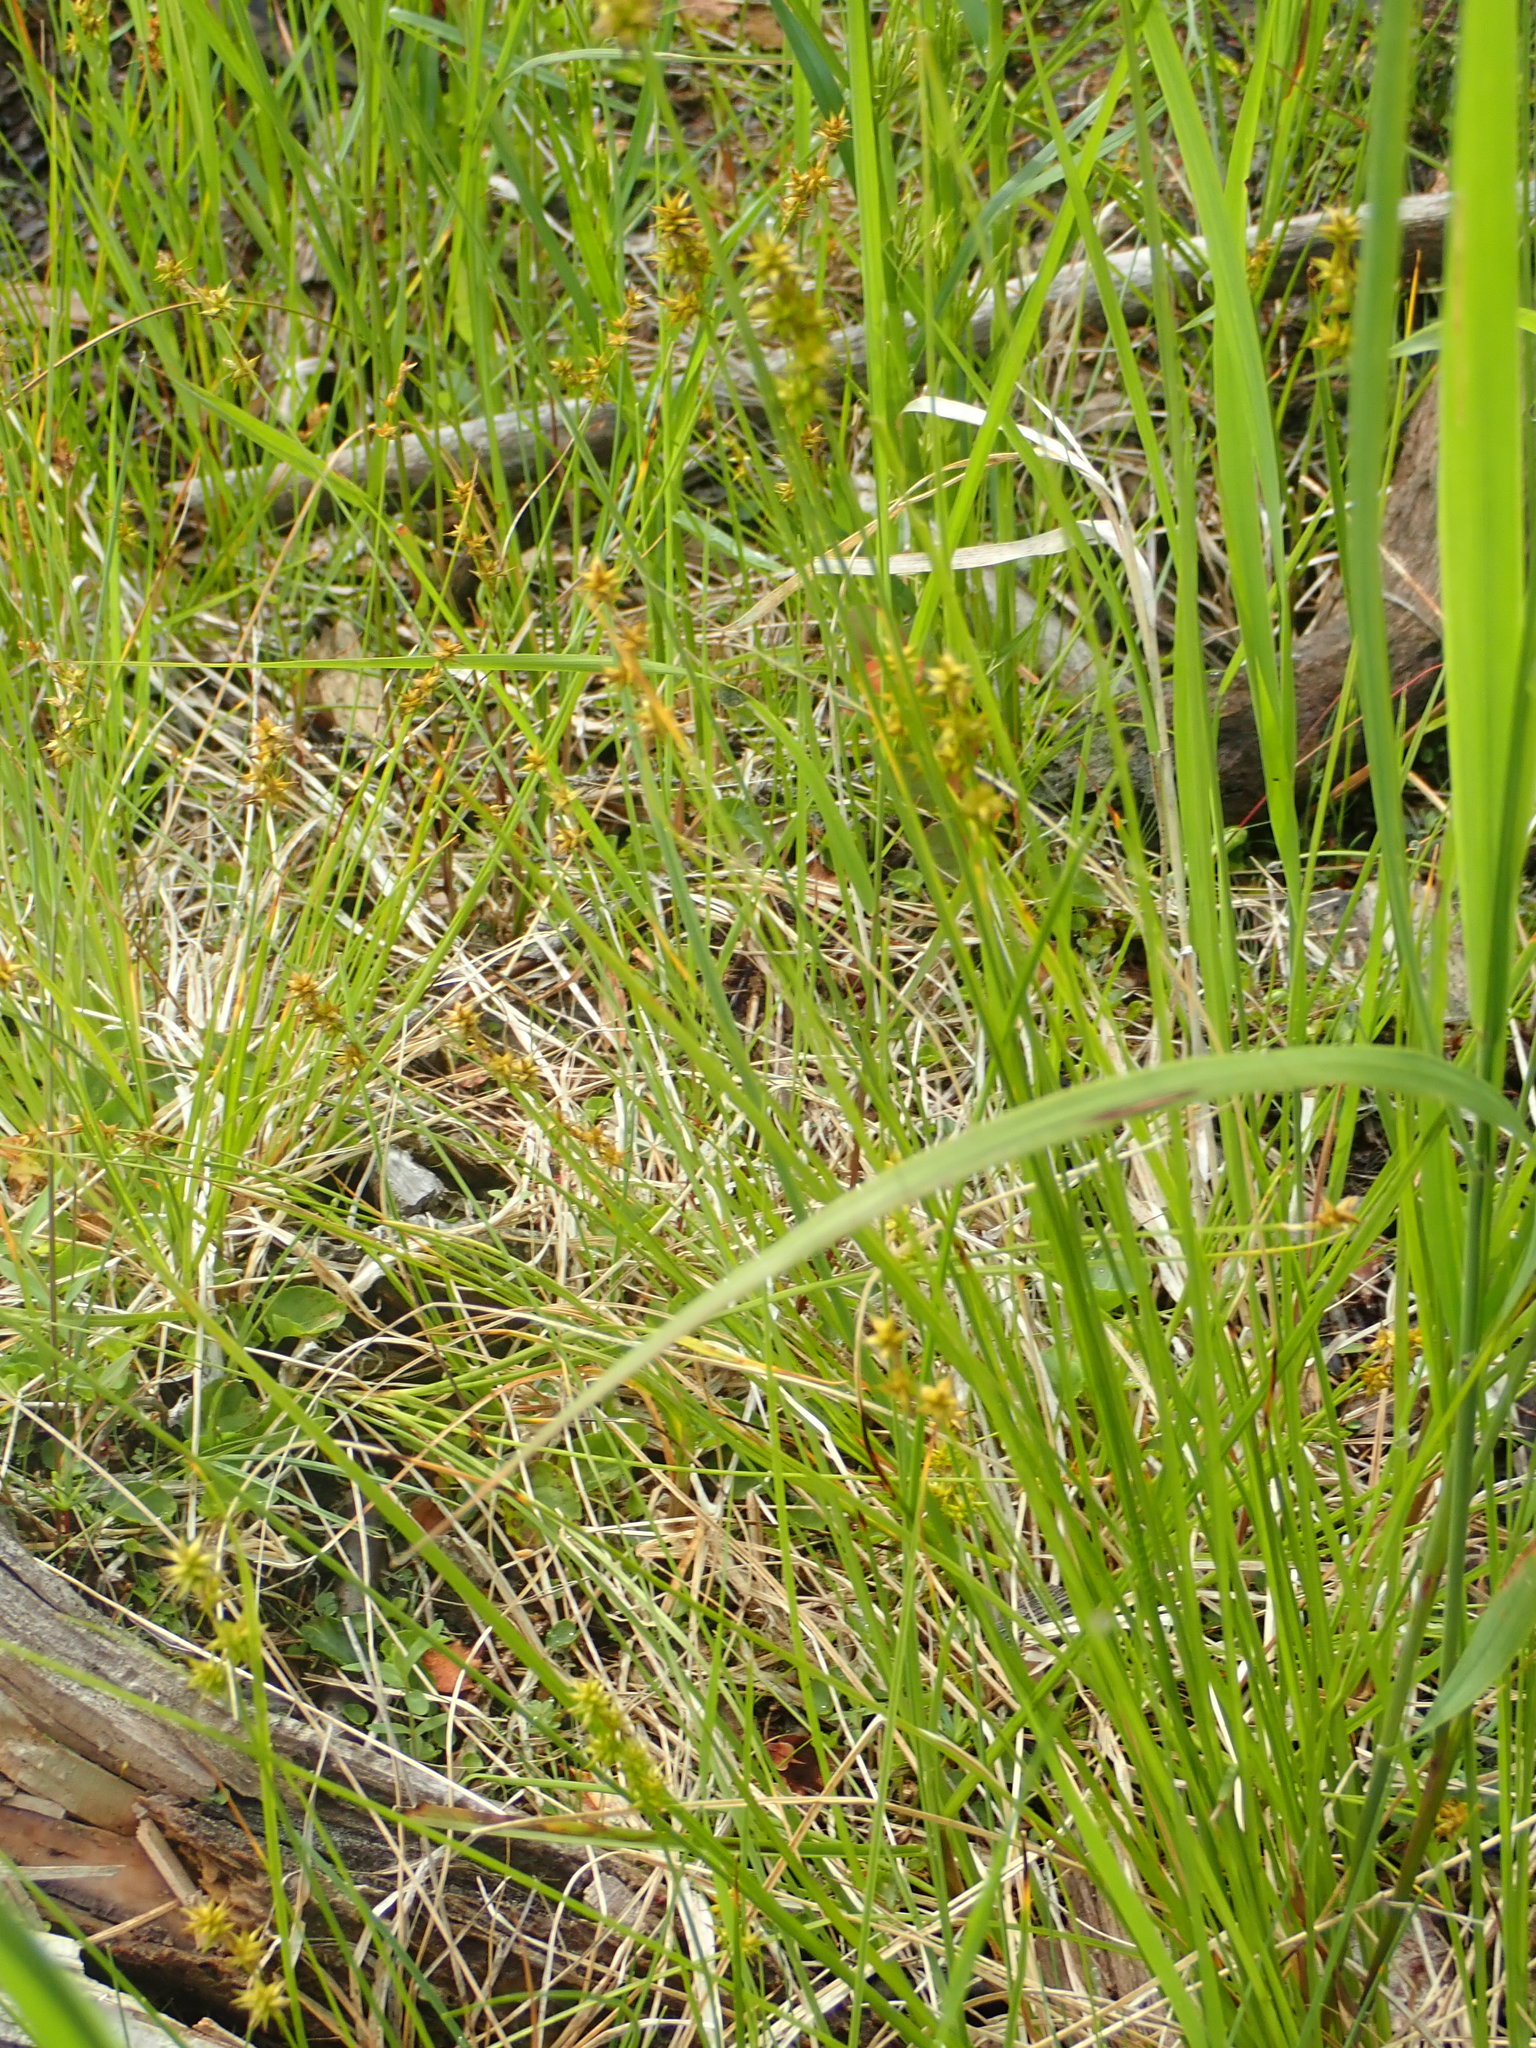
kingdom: Plantae
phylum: Tracheophyta
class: Liliopsida
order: Poales
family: Cyperaceae
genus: Carex
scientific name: Carex echinata
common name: Star sedge
